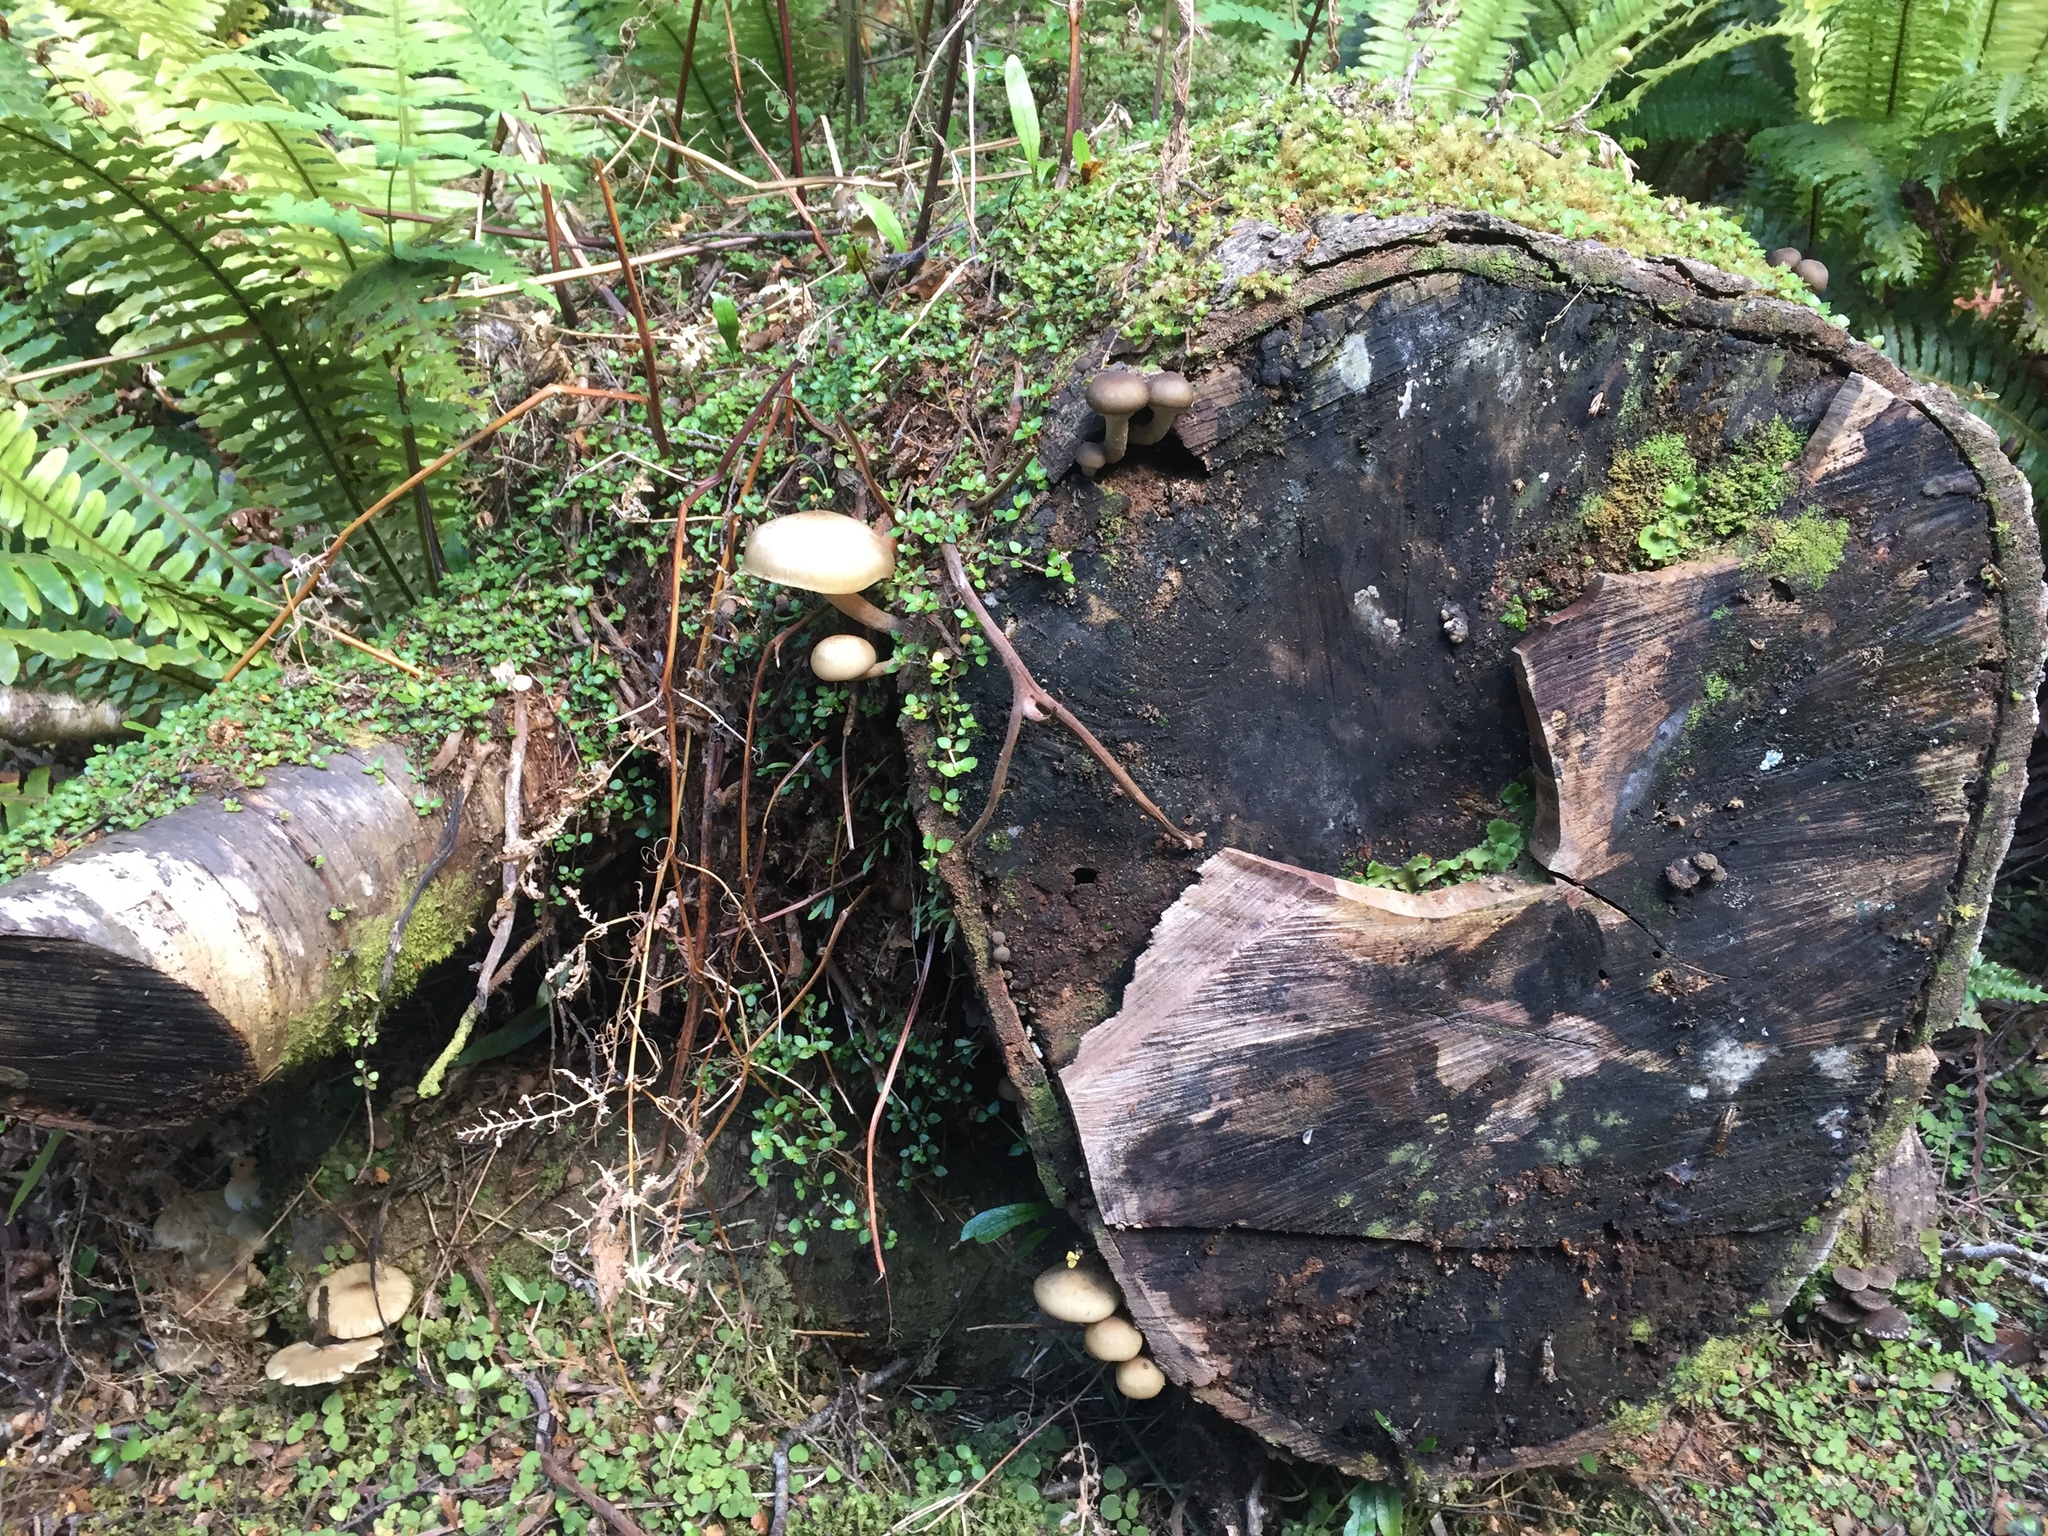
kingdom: Fungi
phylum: Basidiomycota
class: Agaricomycetes
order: Agaricales
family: Physalacriaceae
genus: Armillaria
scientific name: Armillaria novae-zelandiae
